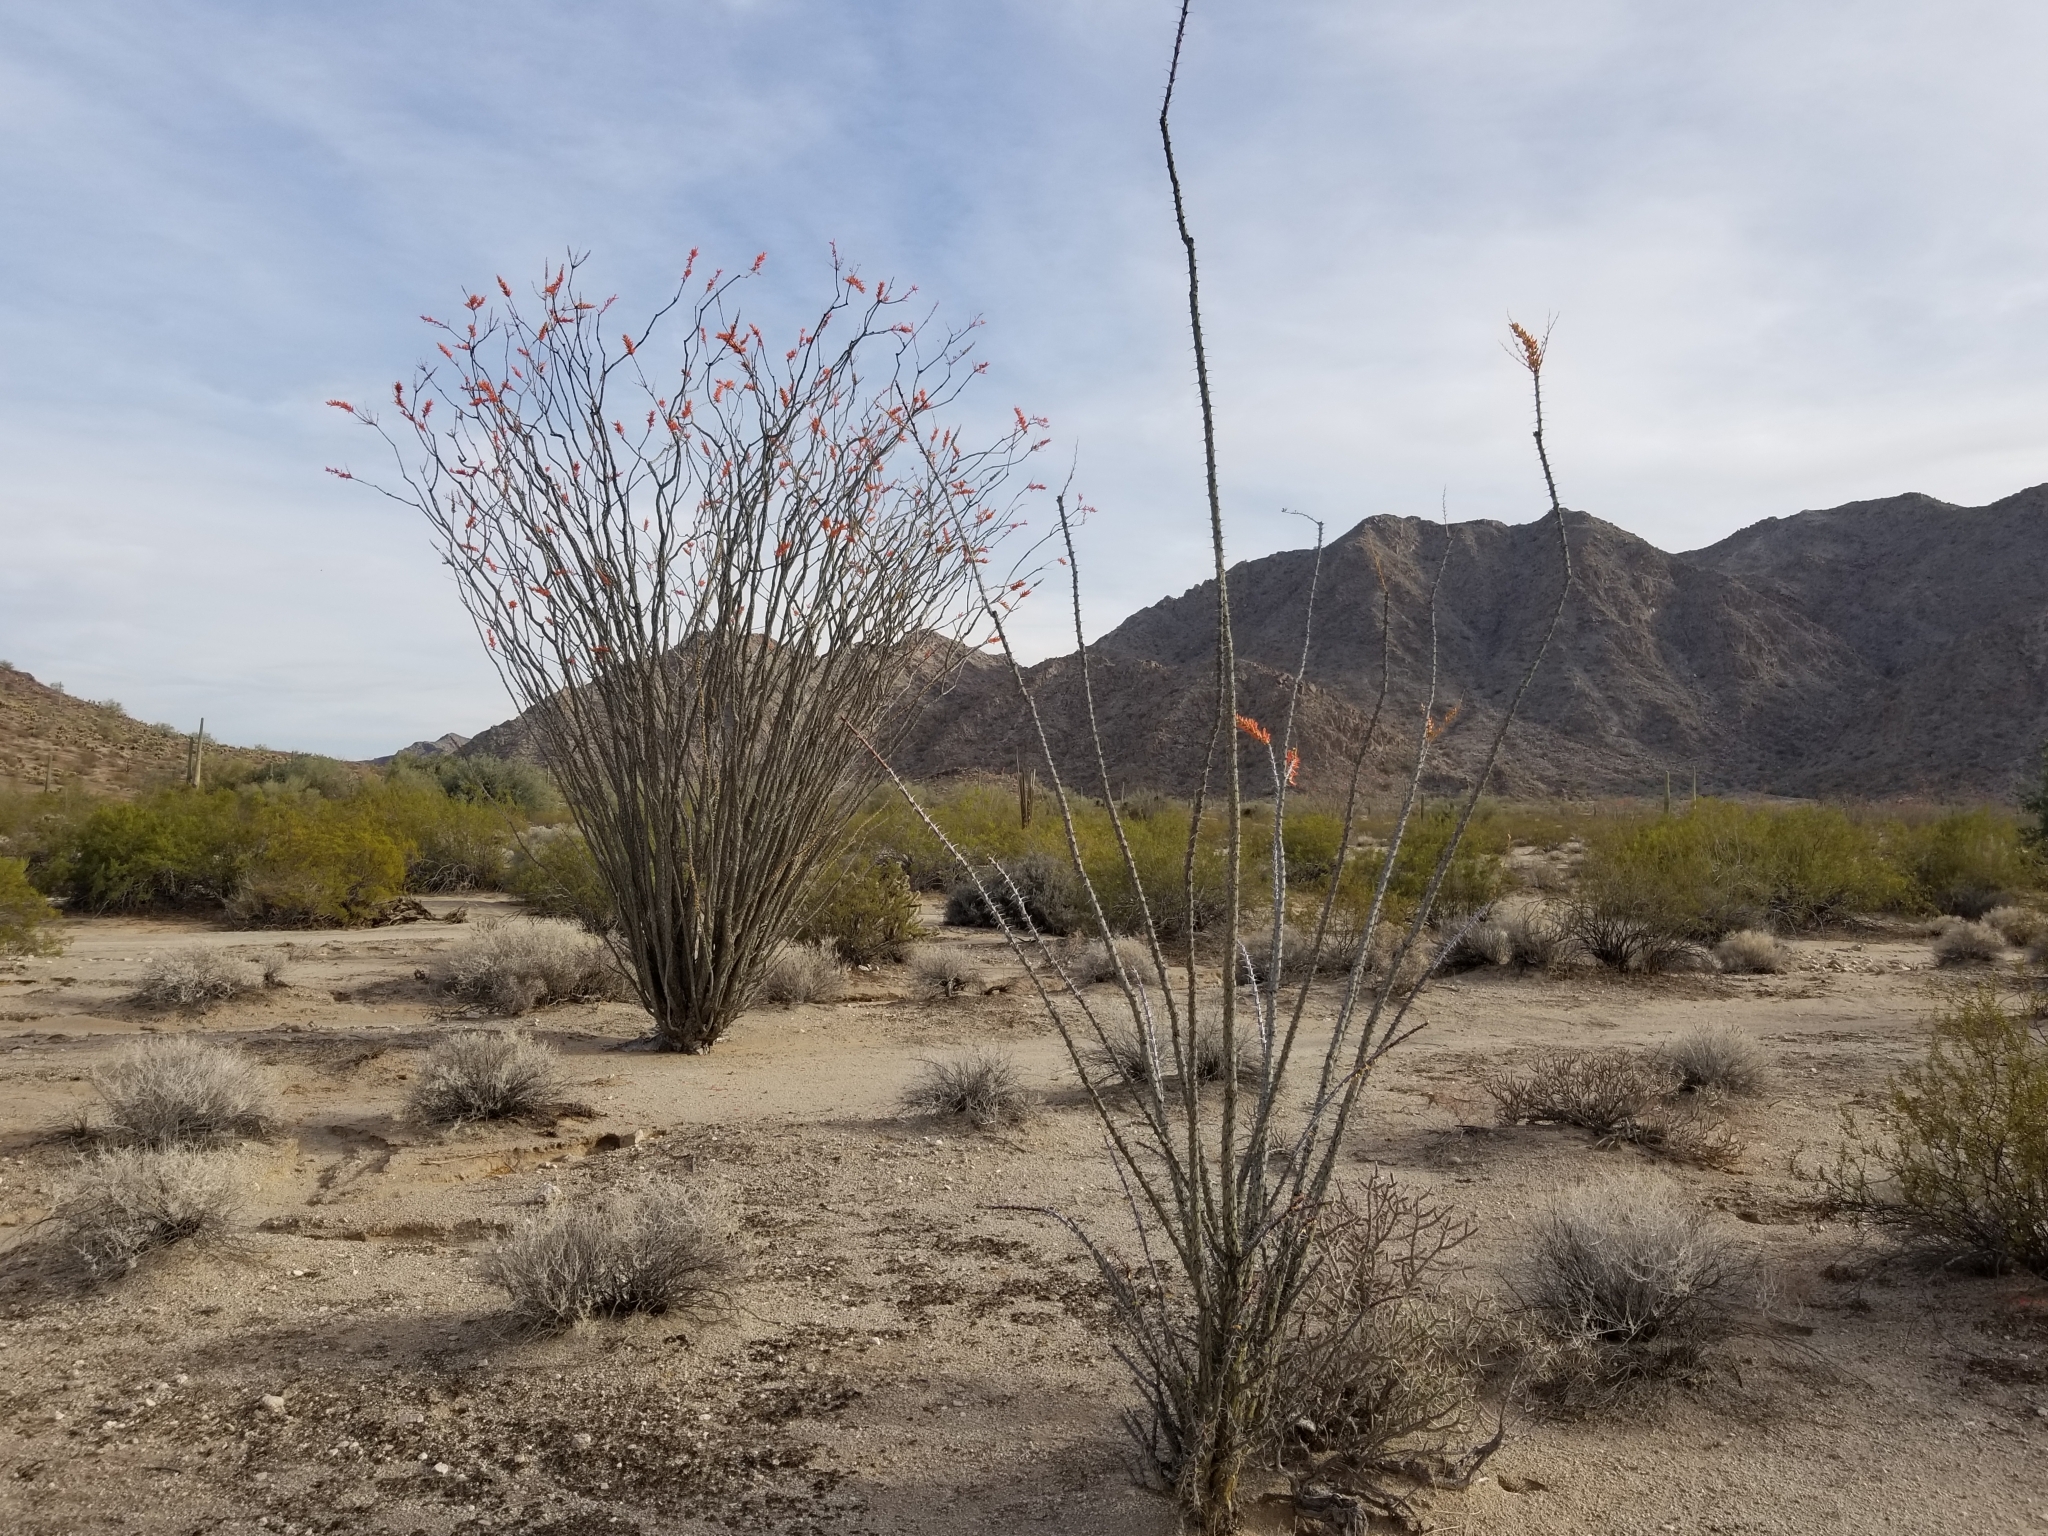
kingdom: Plantae
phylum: Tracheophyta
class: Magnoliopsida
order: Ericales
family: Fouquieriaceae
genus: Fouquieria
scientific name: Fouquieria splendens
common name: Vine-cactus
